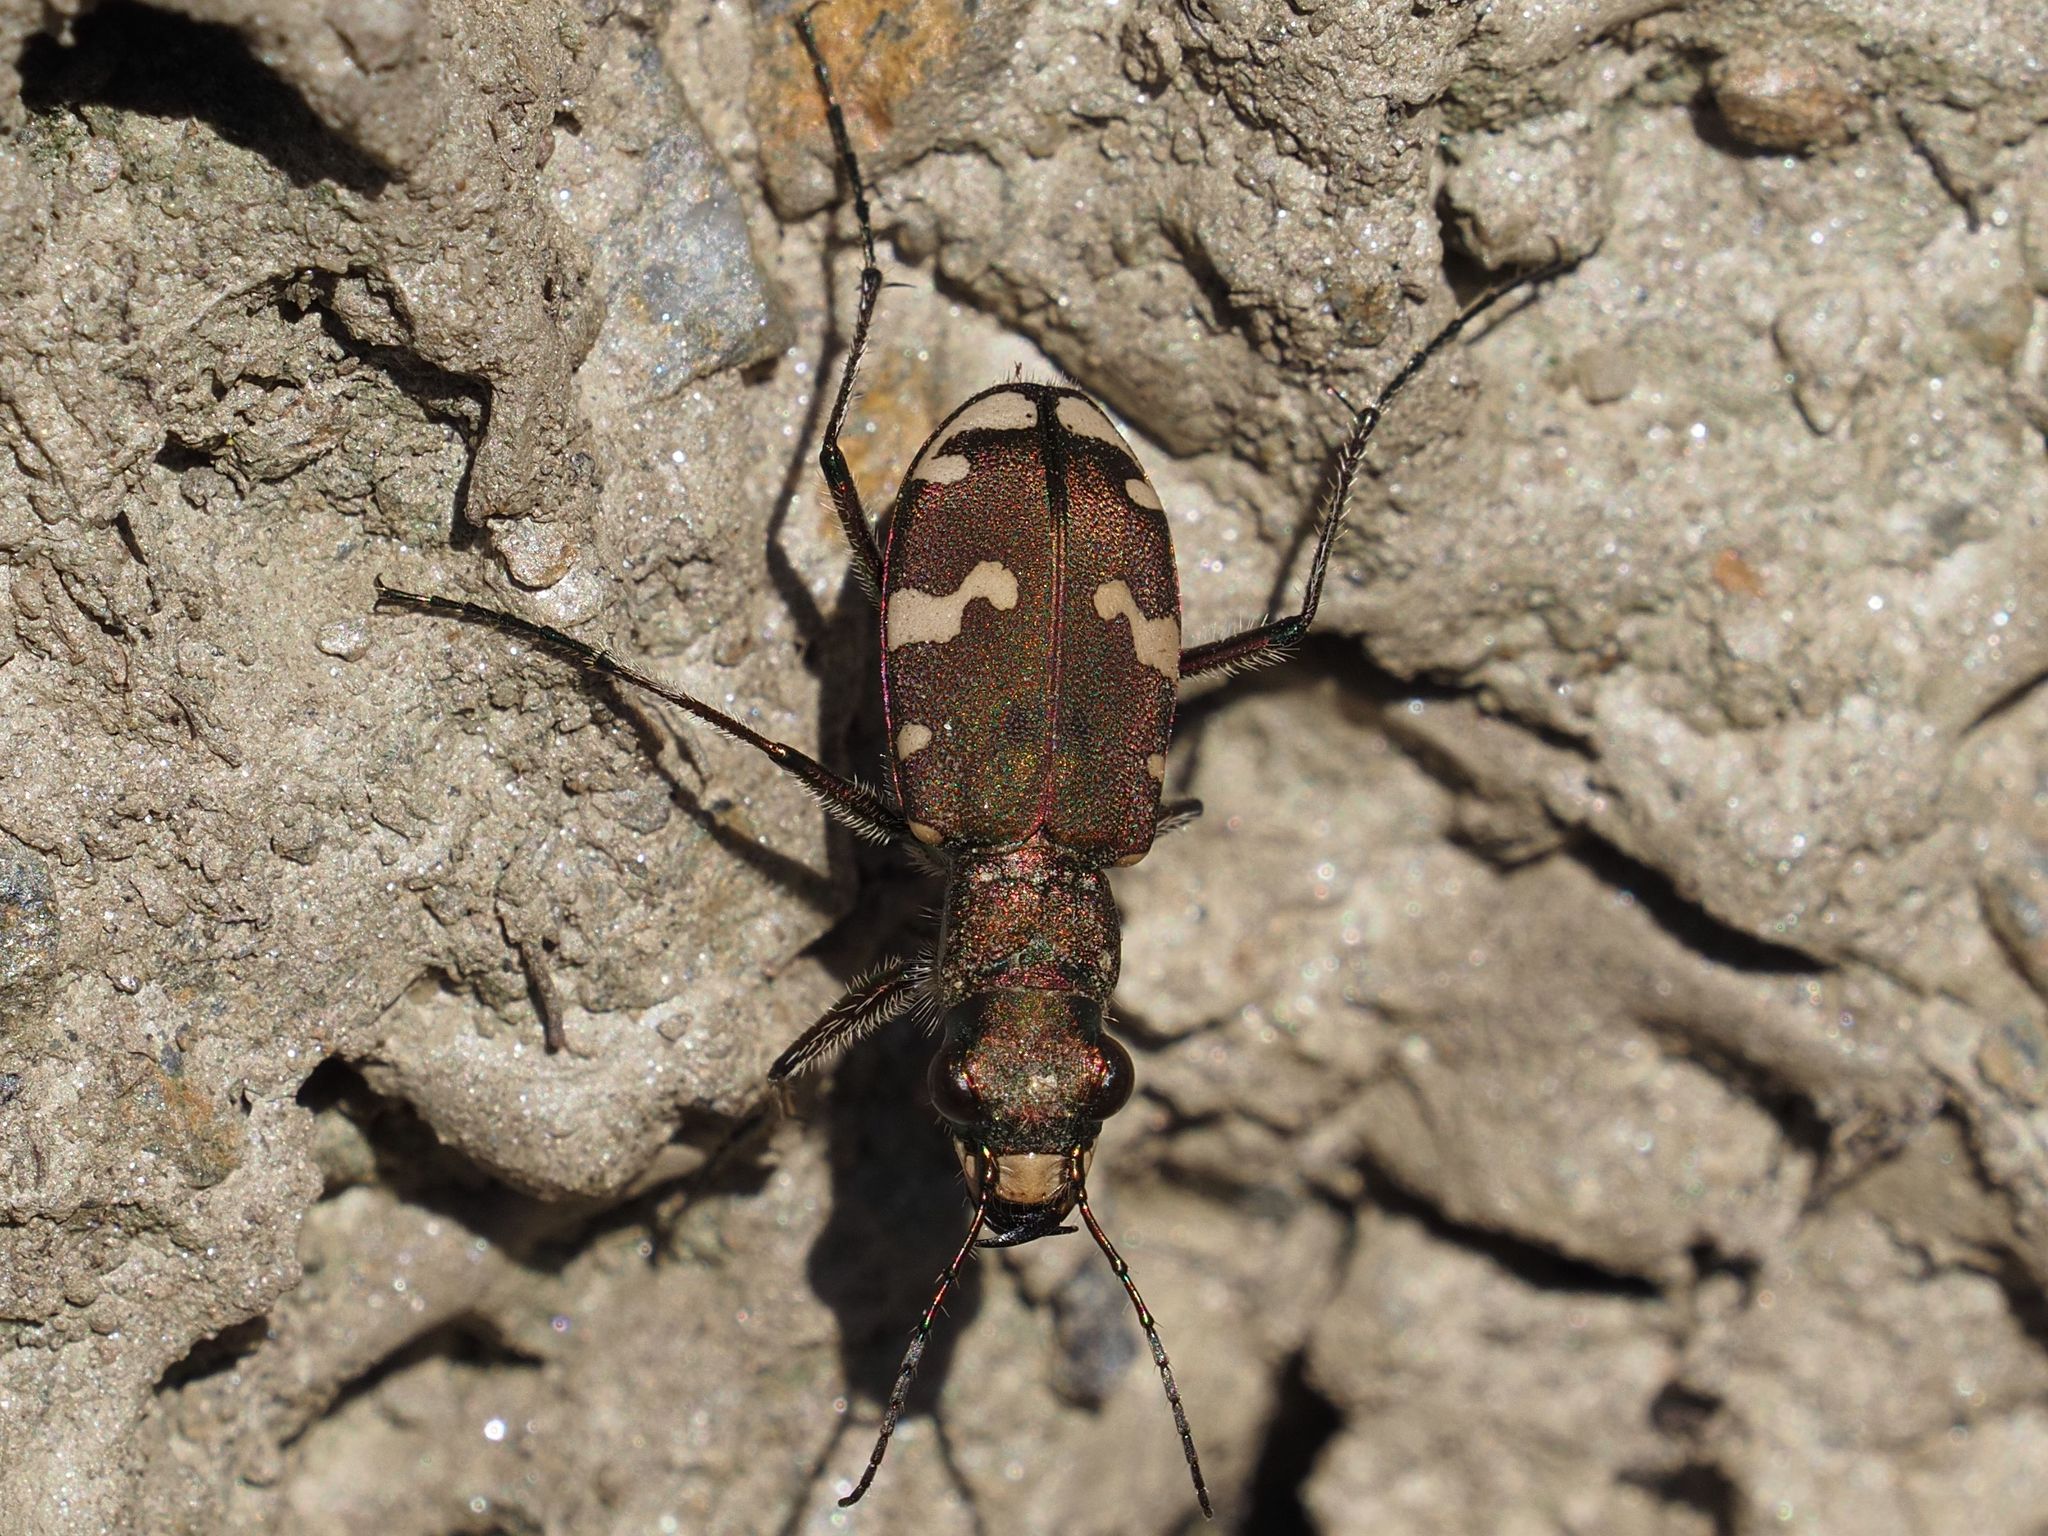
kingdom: Animalia
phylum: Arthropoda
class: Insecta
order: Coleoptera
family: Carabidae
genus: Cicindela
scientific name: Cicindela sylvicola
